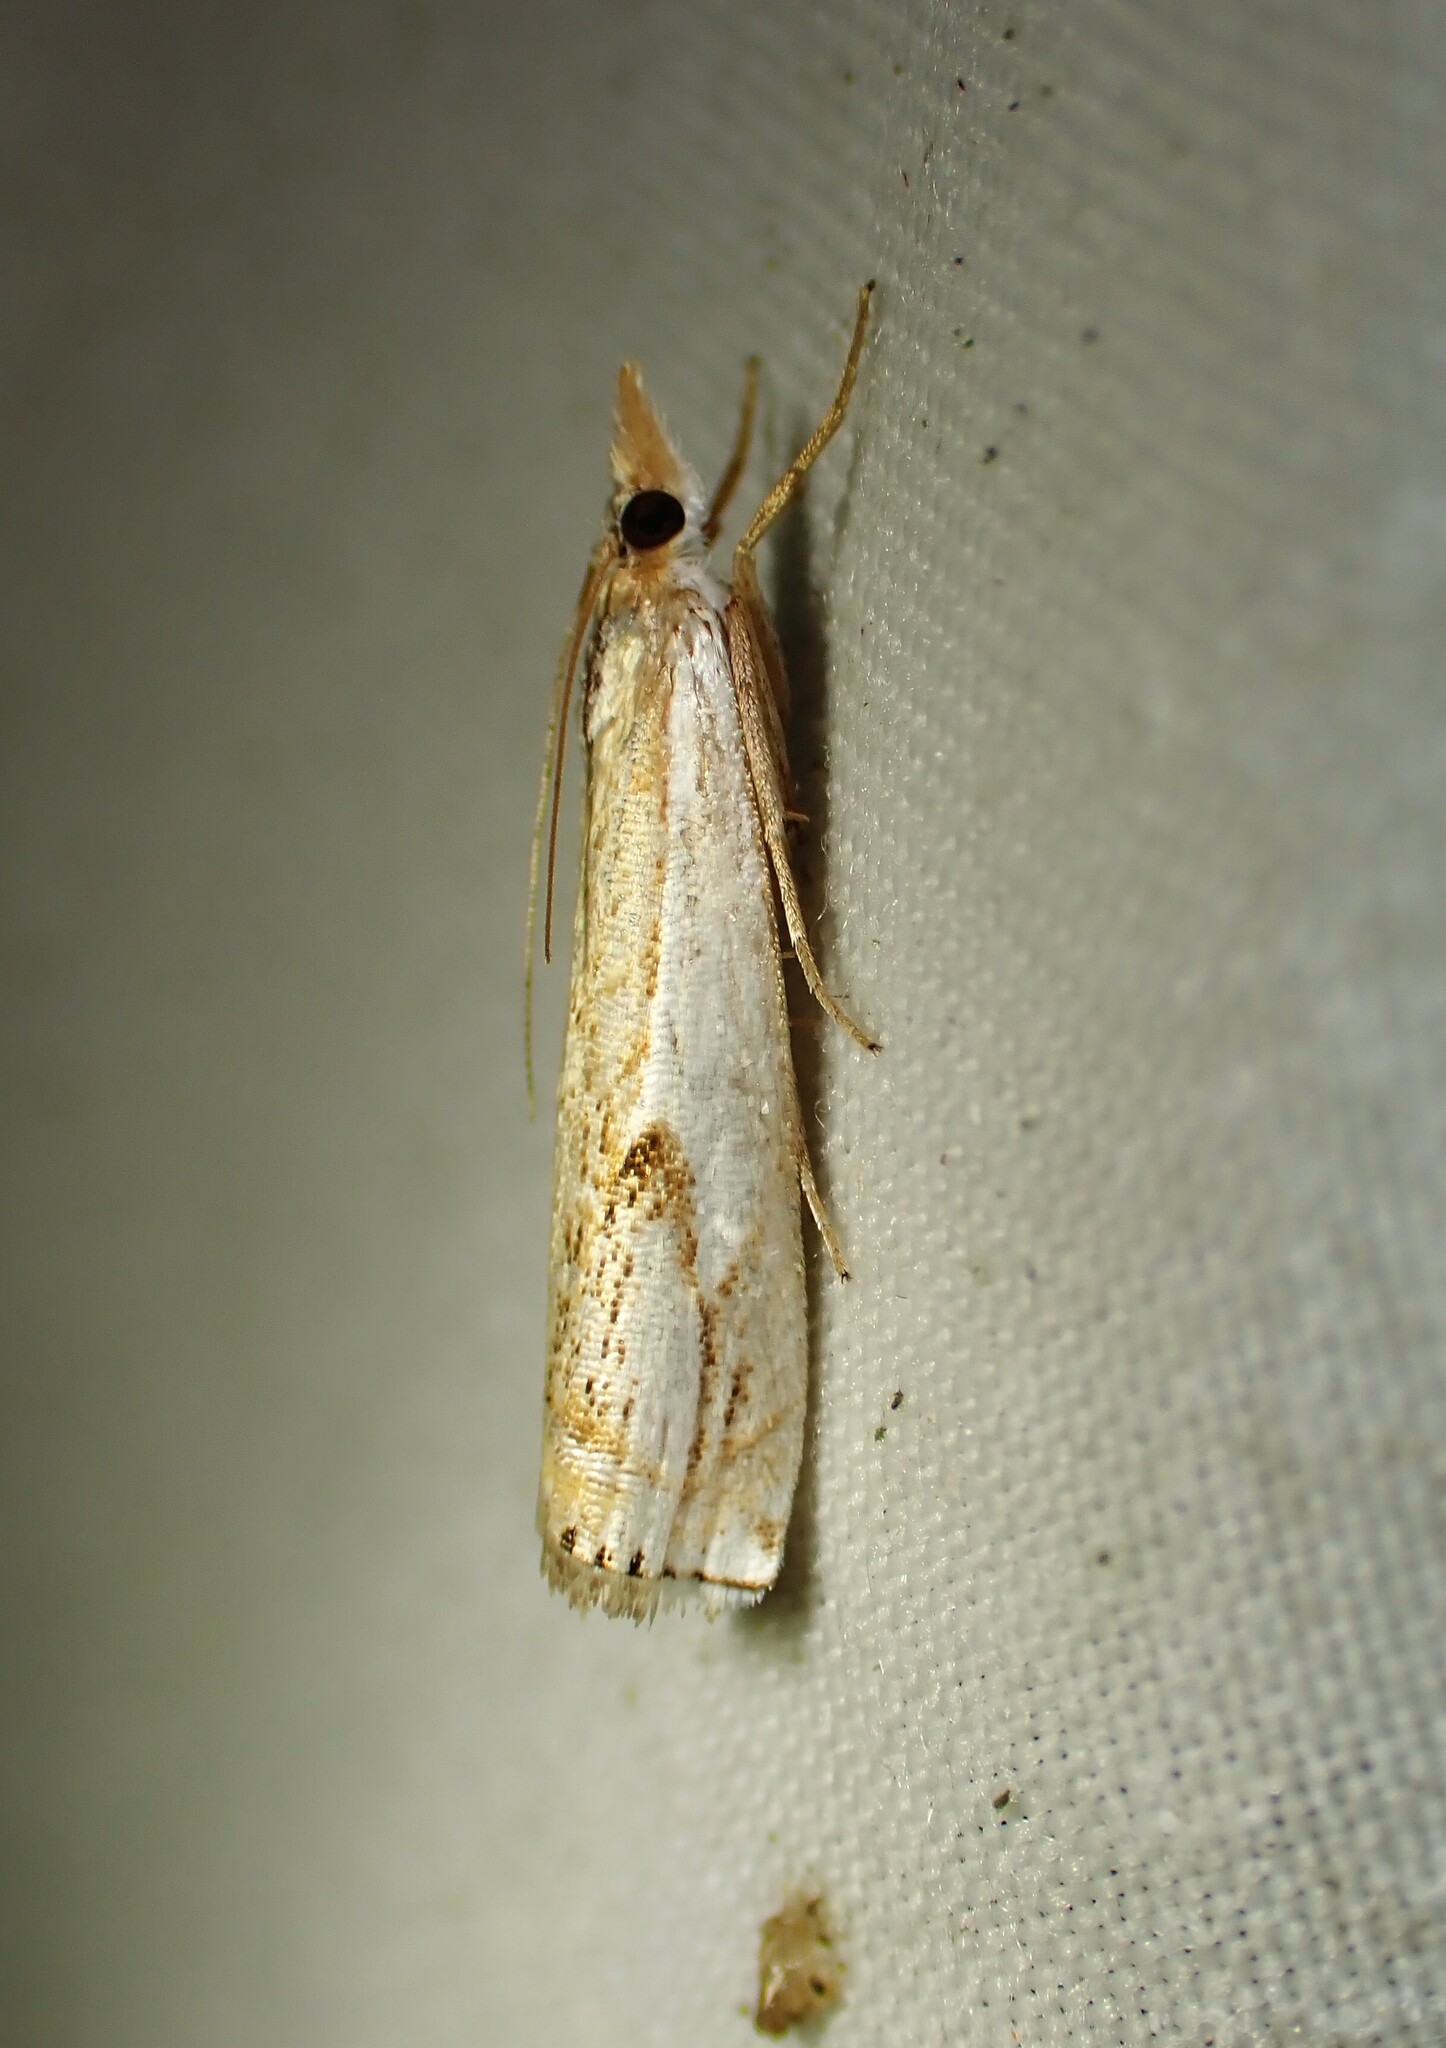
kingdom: Animalia
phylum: Arthropoda
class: Insecta
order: Lepidoptera
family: Crambidae
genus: Crambus
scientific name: Crambus agitatellus
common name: Double-banded grass-veneer
